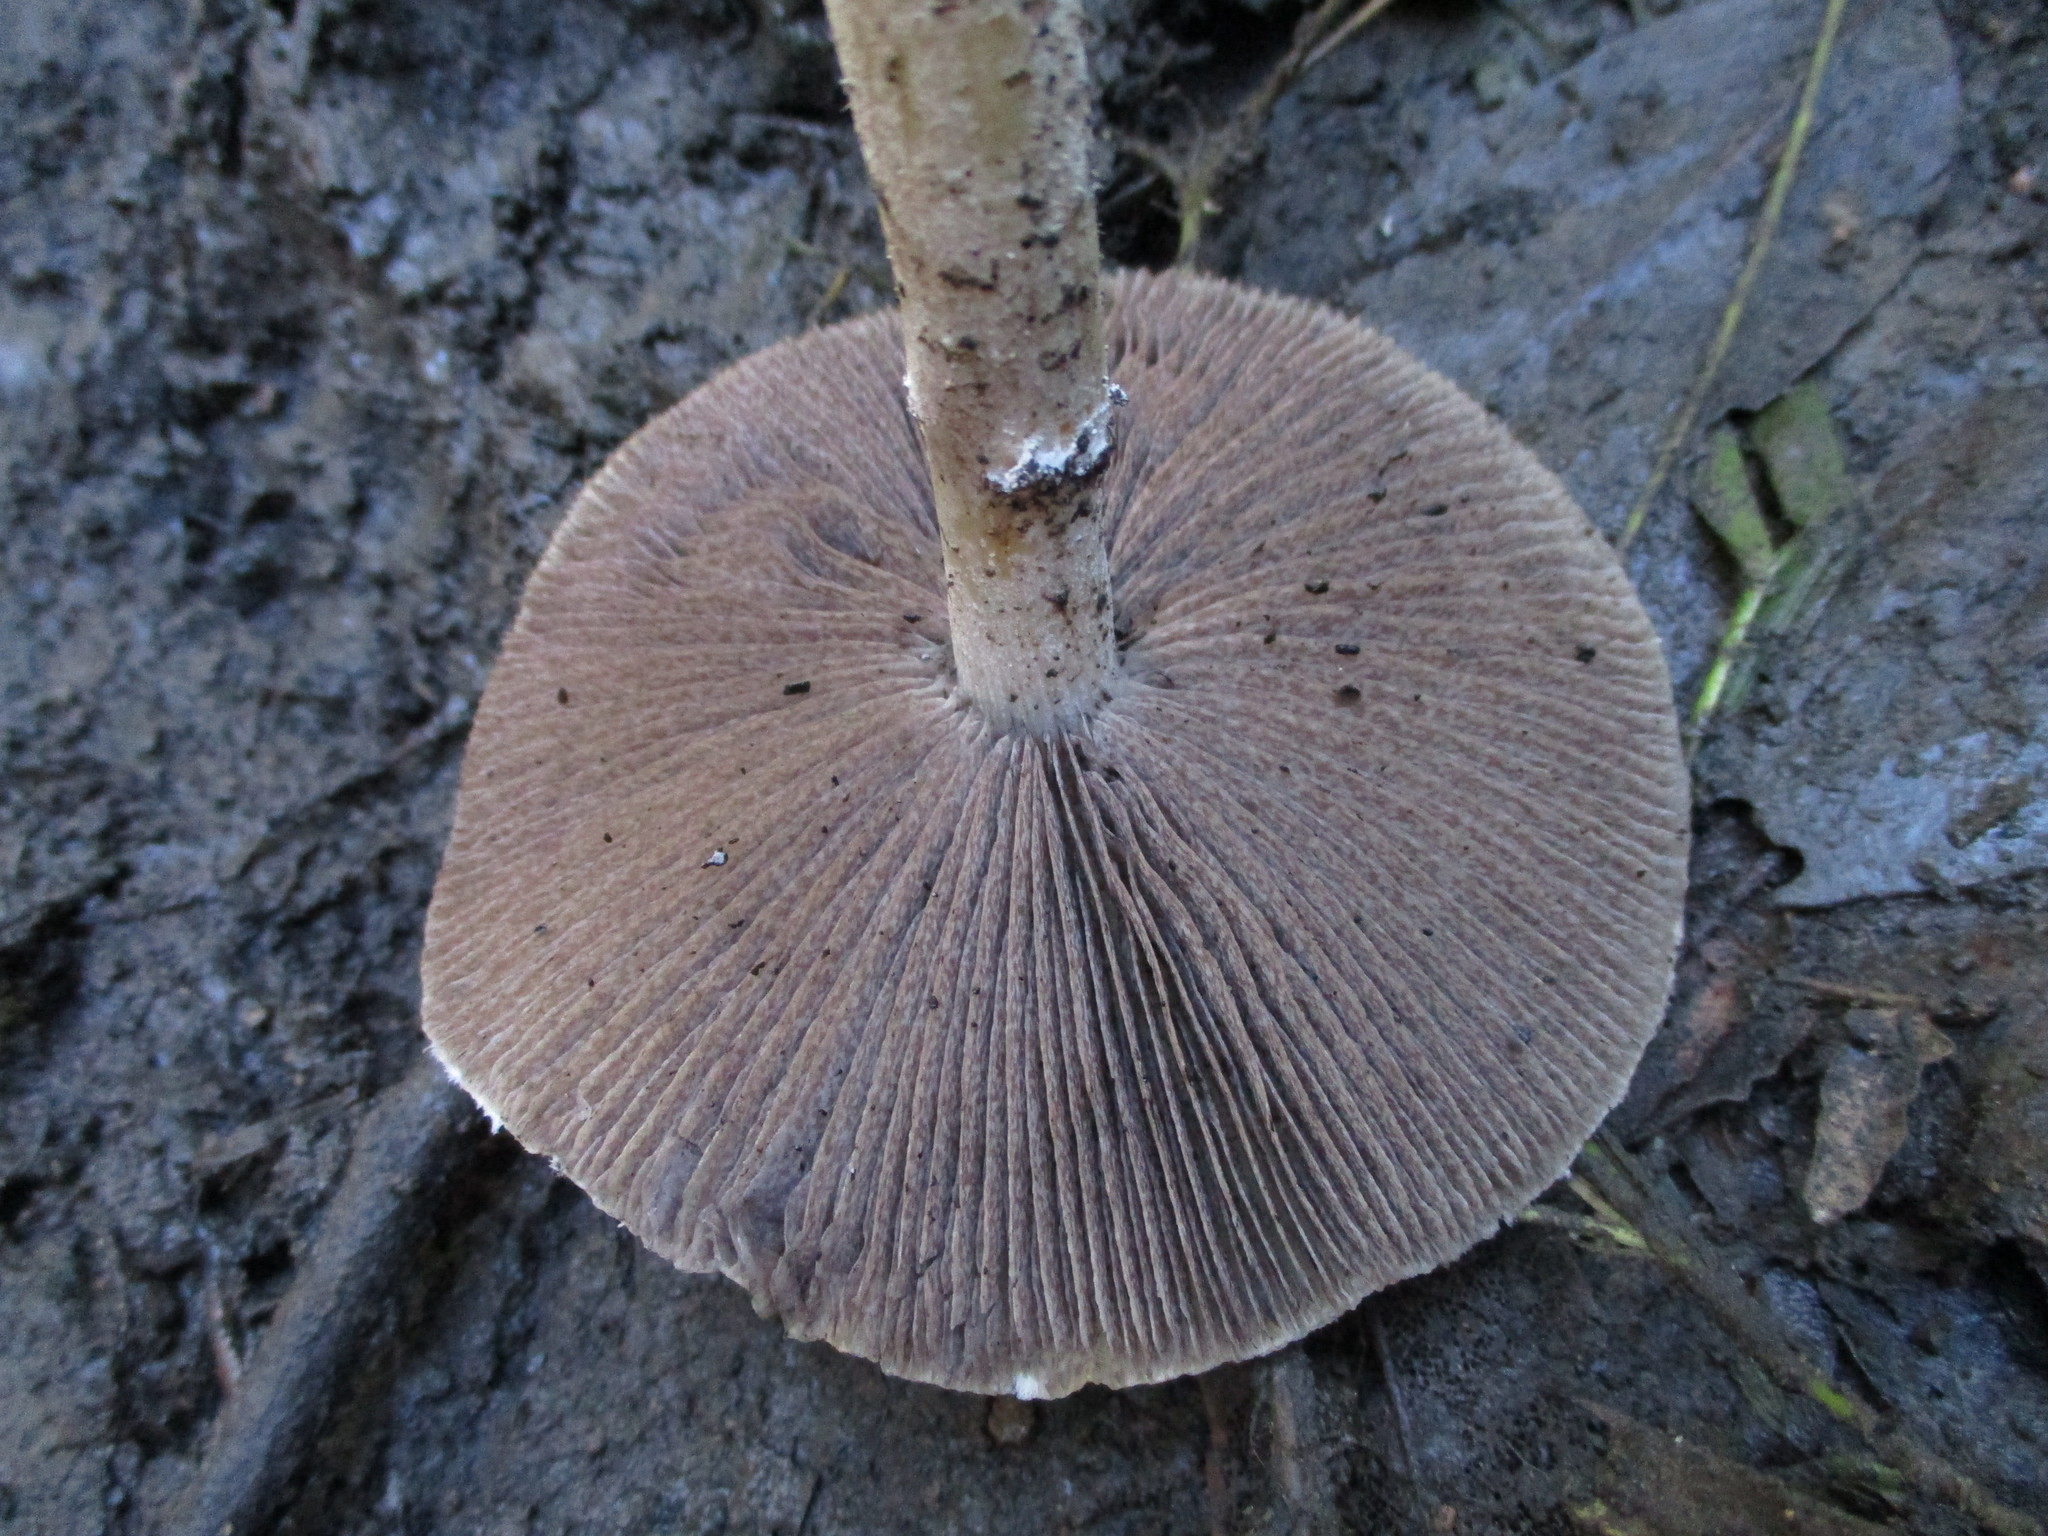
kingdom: Fungi
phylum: Basidiomycota
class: Agaricomycetes
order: Agaricales
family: Strophariaceae
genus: Leratiomyces
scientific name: Leratiomyces percevalii
